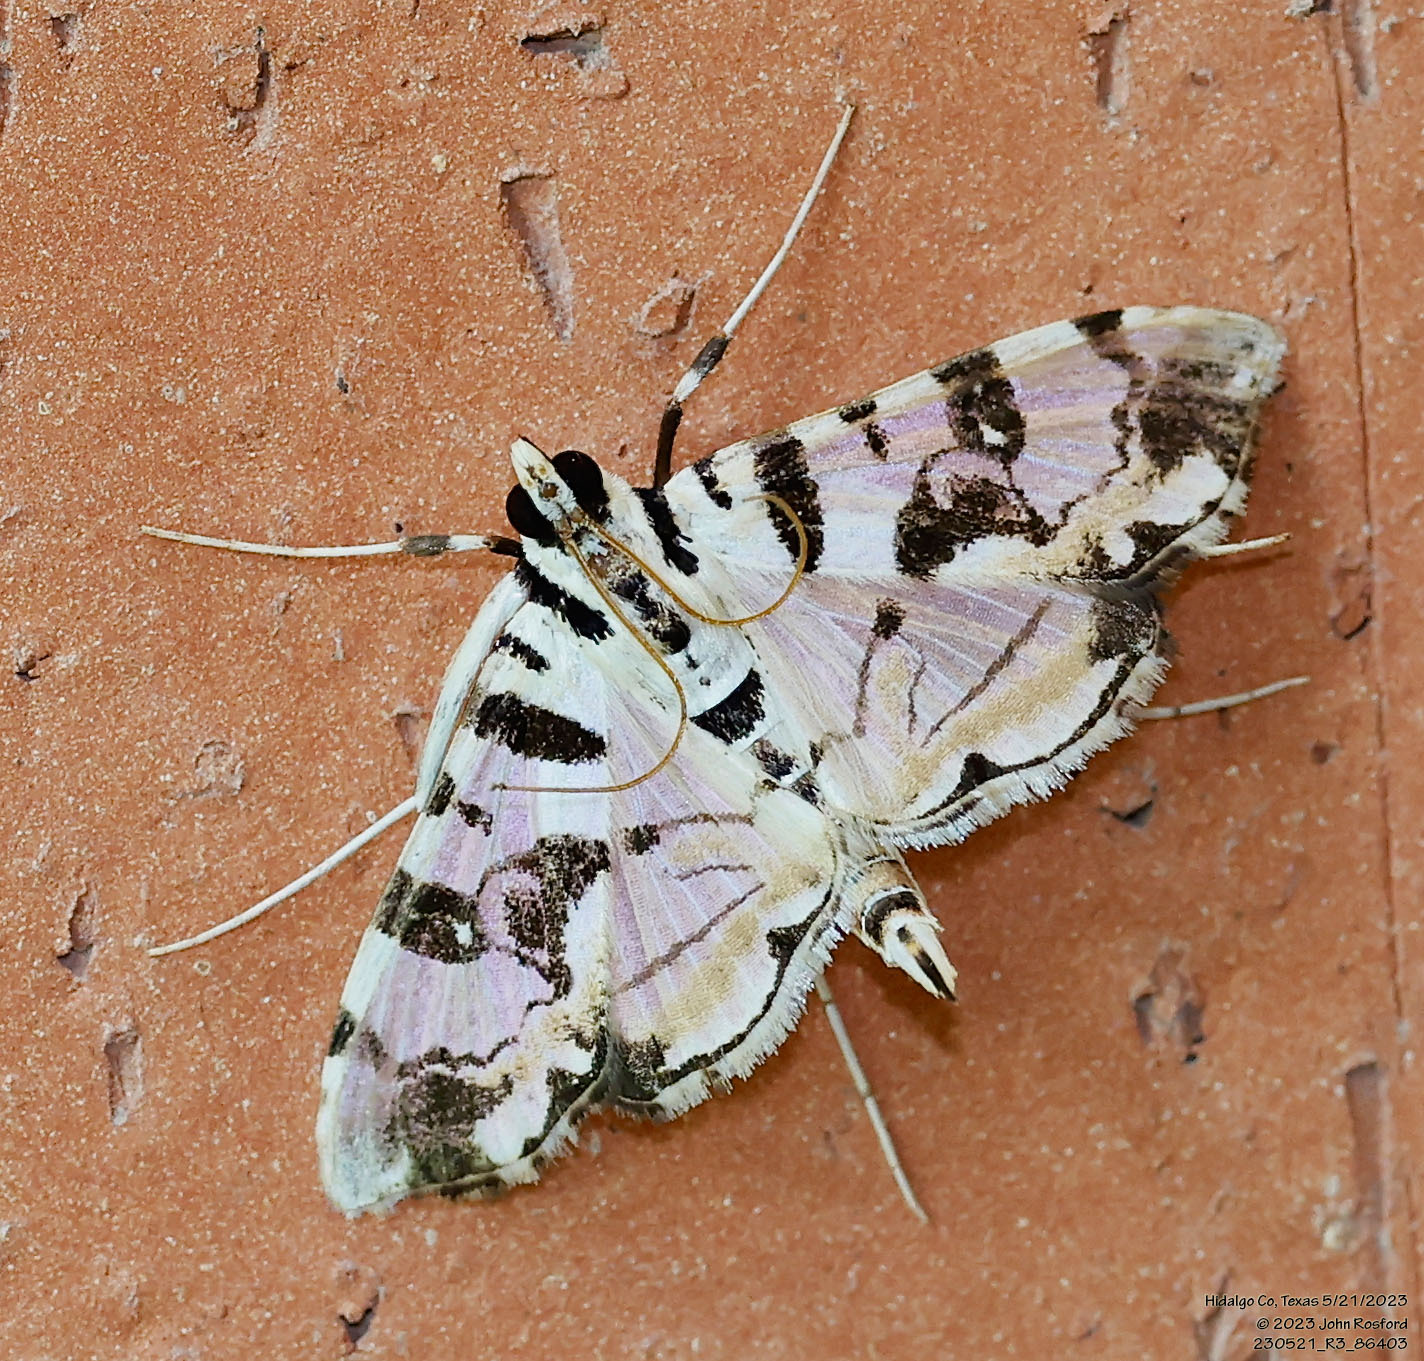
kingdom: Animalia
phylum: Arthropoda
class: Insecta
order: Lepidoptera
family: Crambidae
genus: Conchylodes
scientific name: Conchylodes salamisalis
